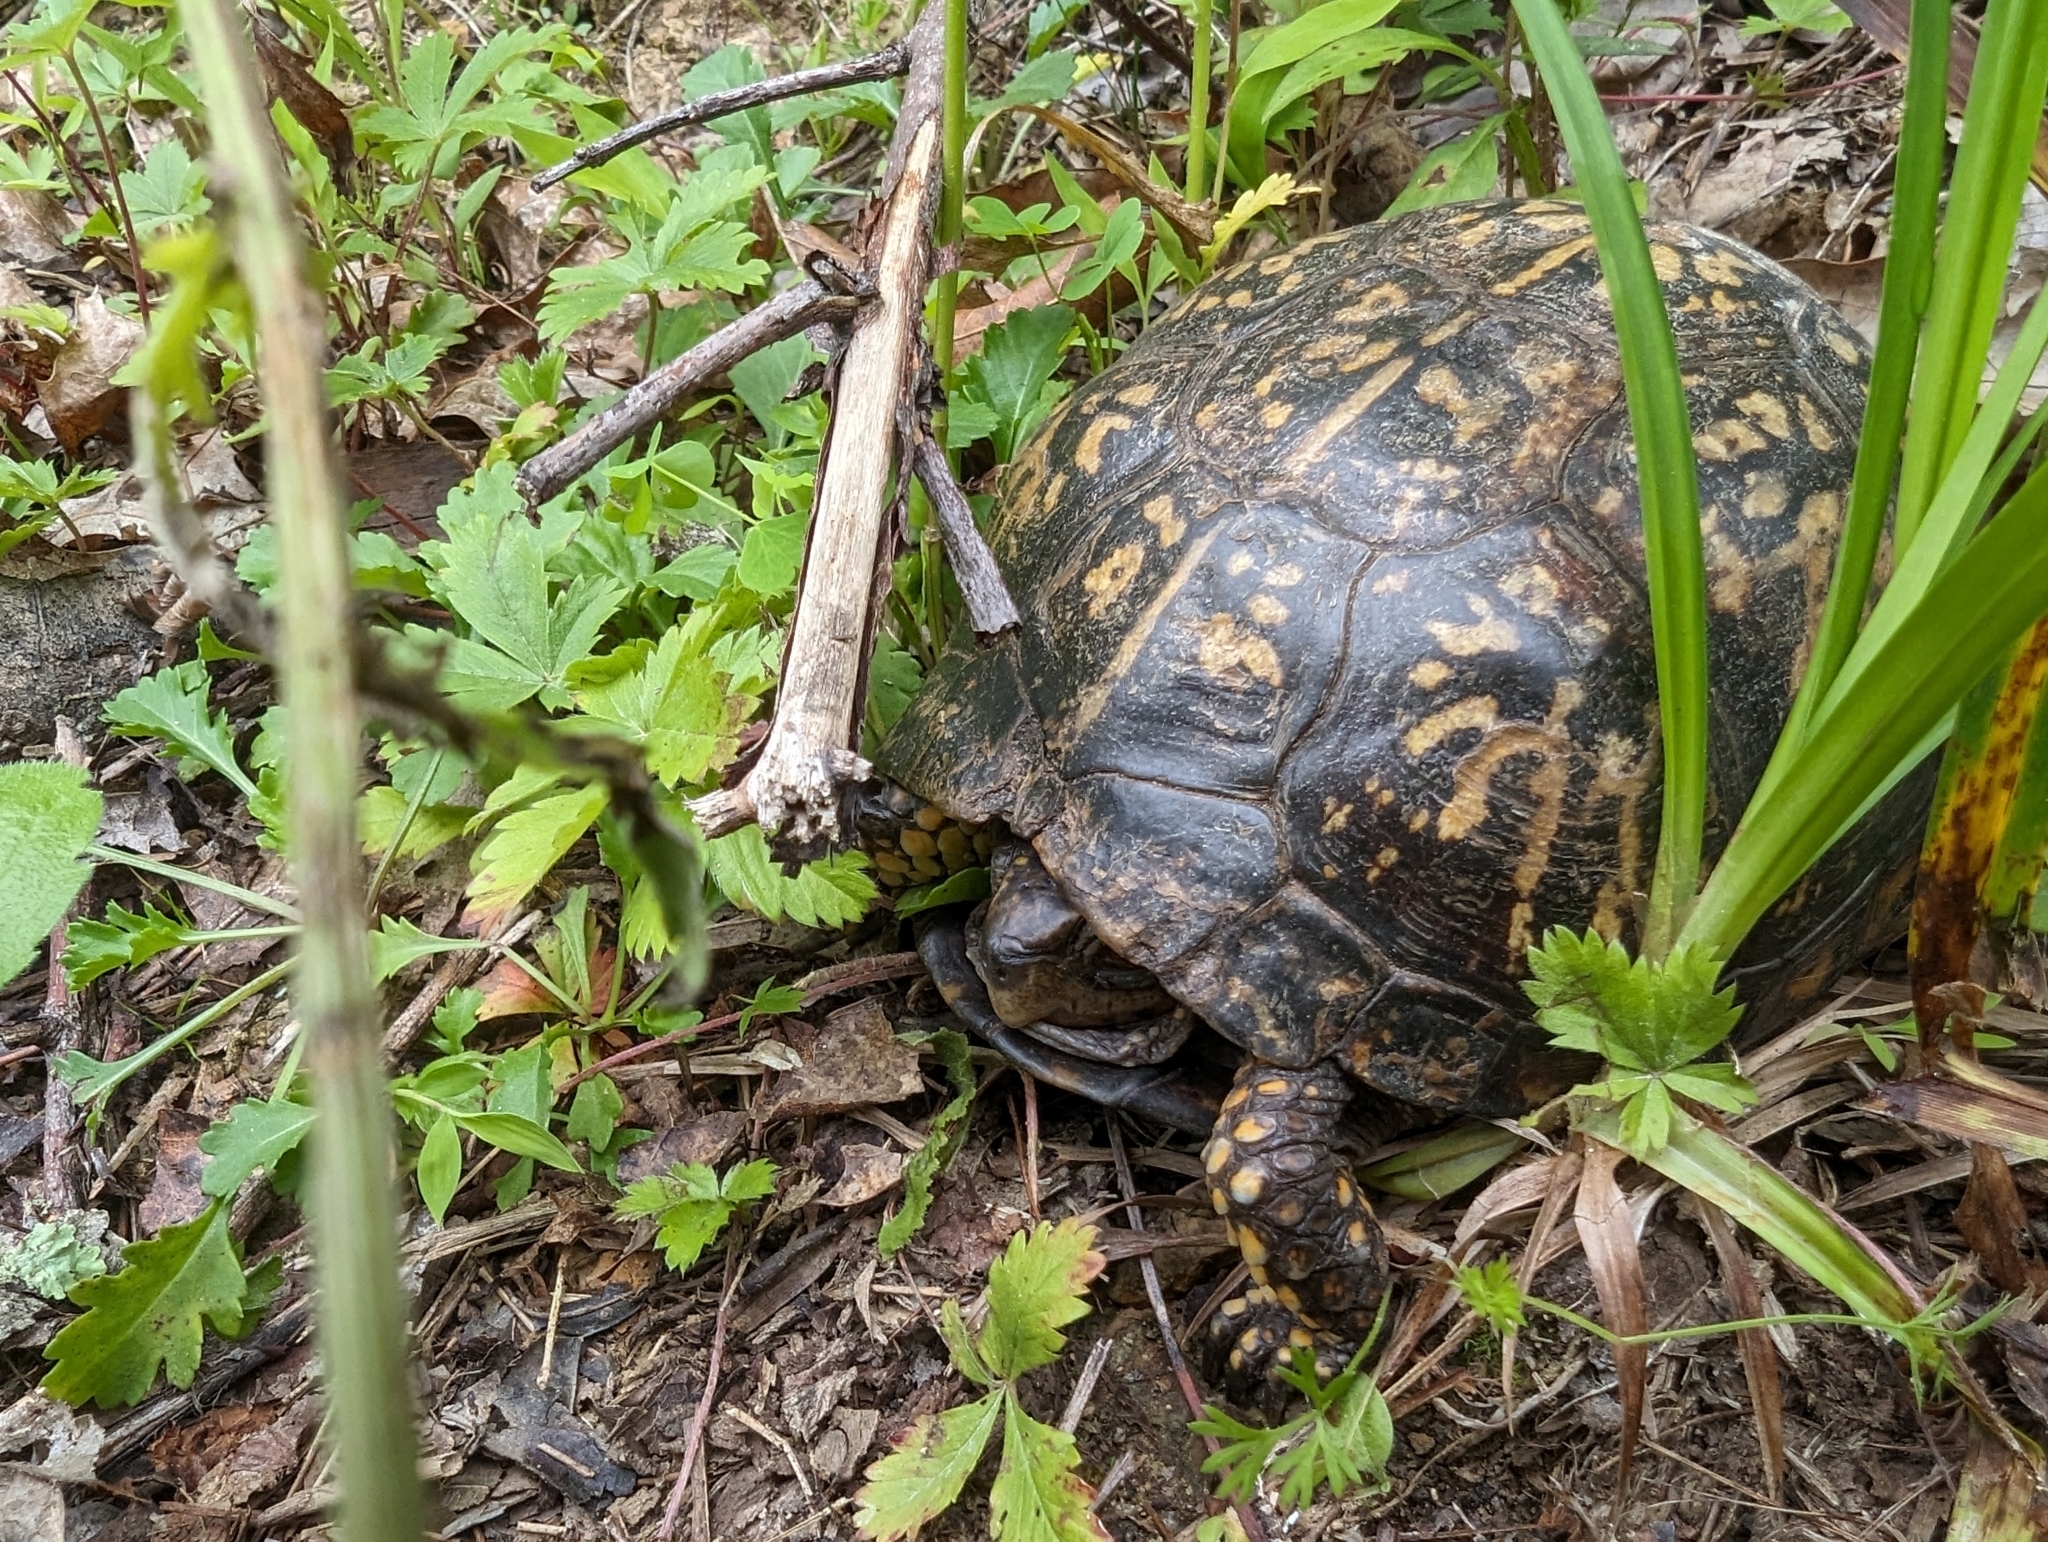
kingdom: Animalia
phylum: Chordata
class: Testudines
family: Emydidae
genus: Terrapene
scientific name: Terrapene carolina
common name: Common box turtle
